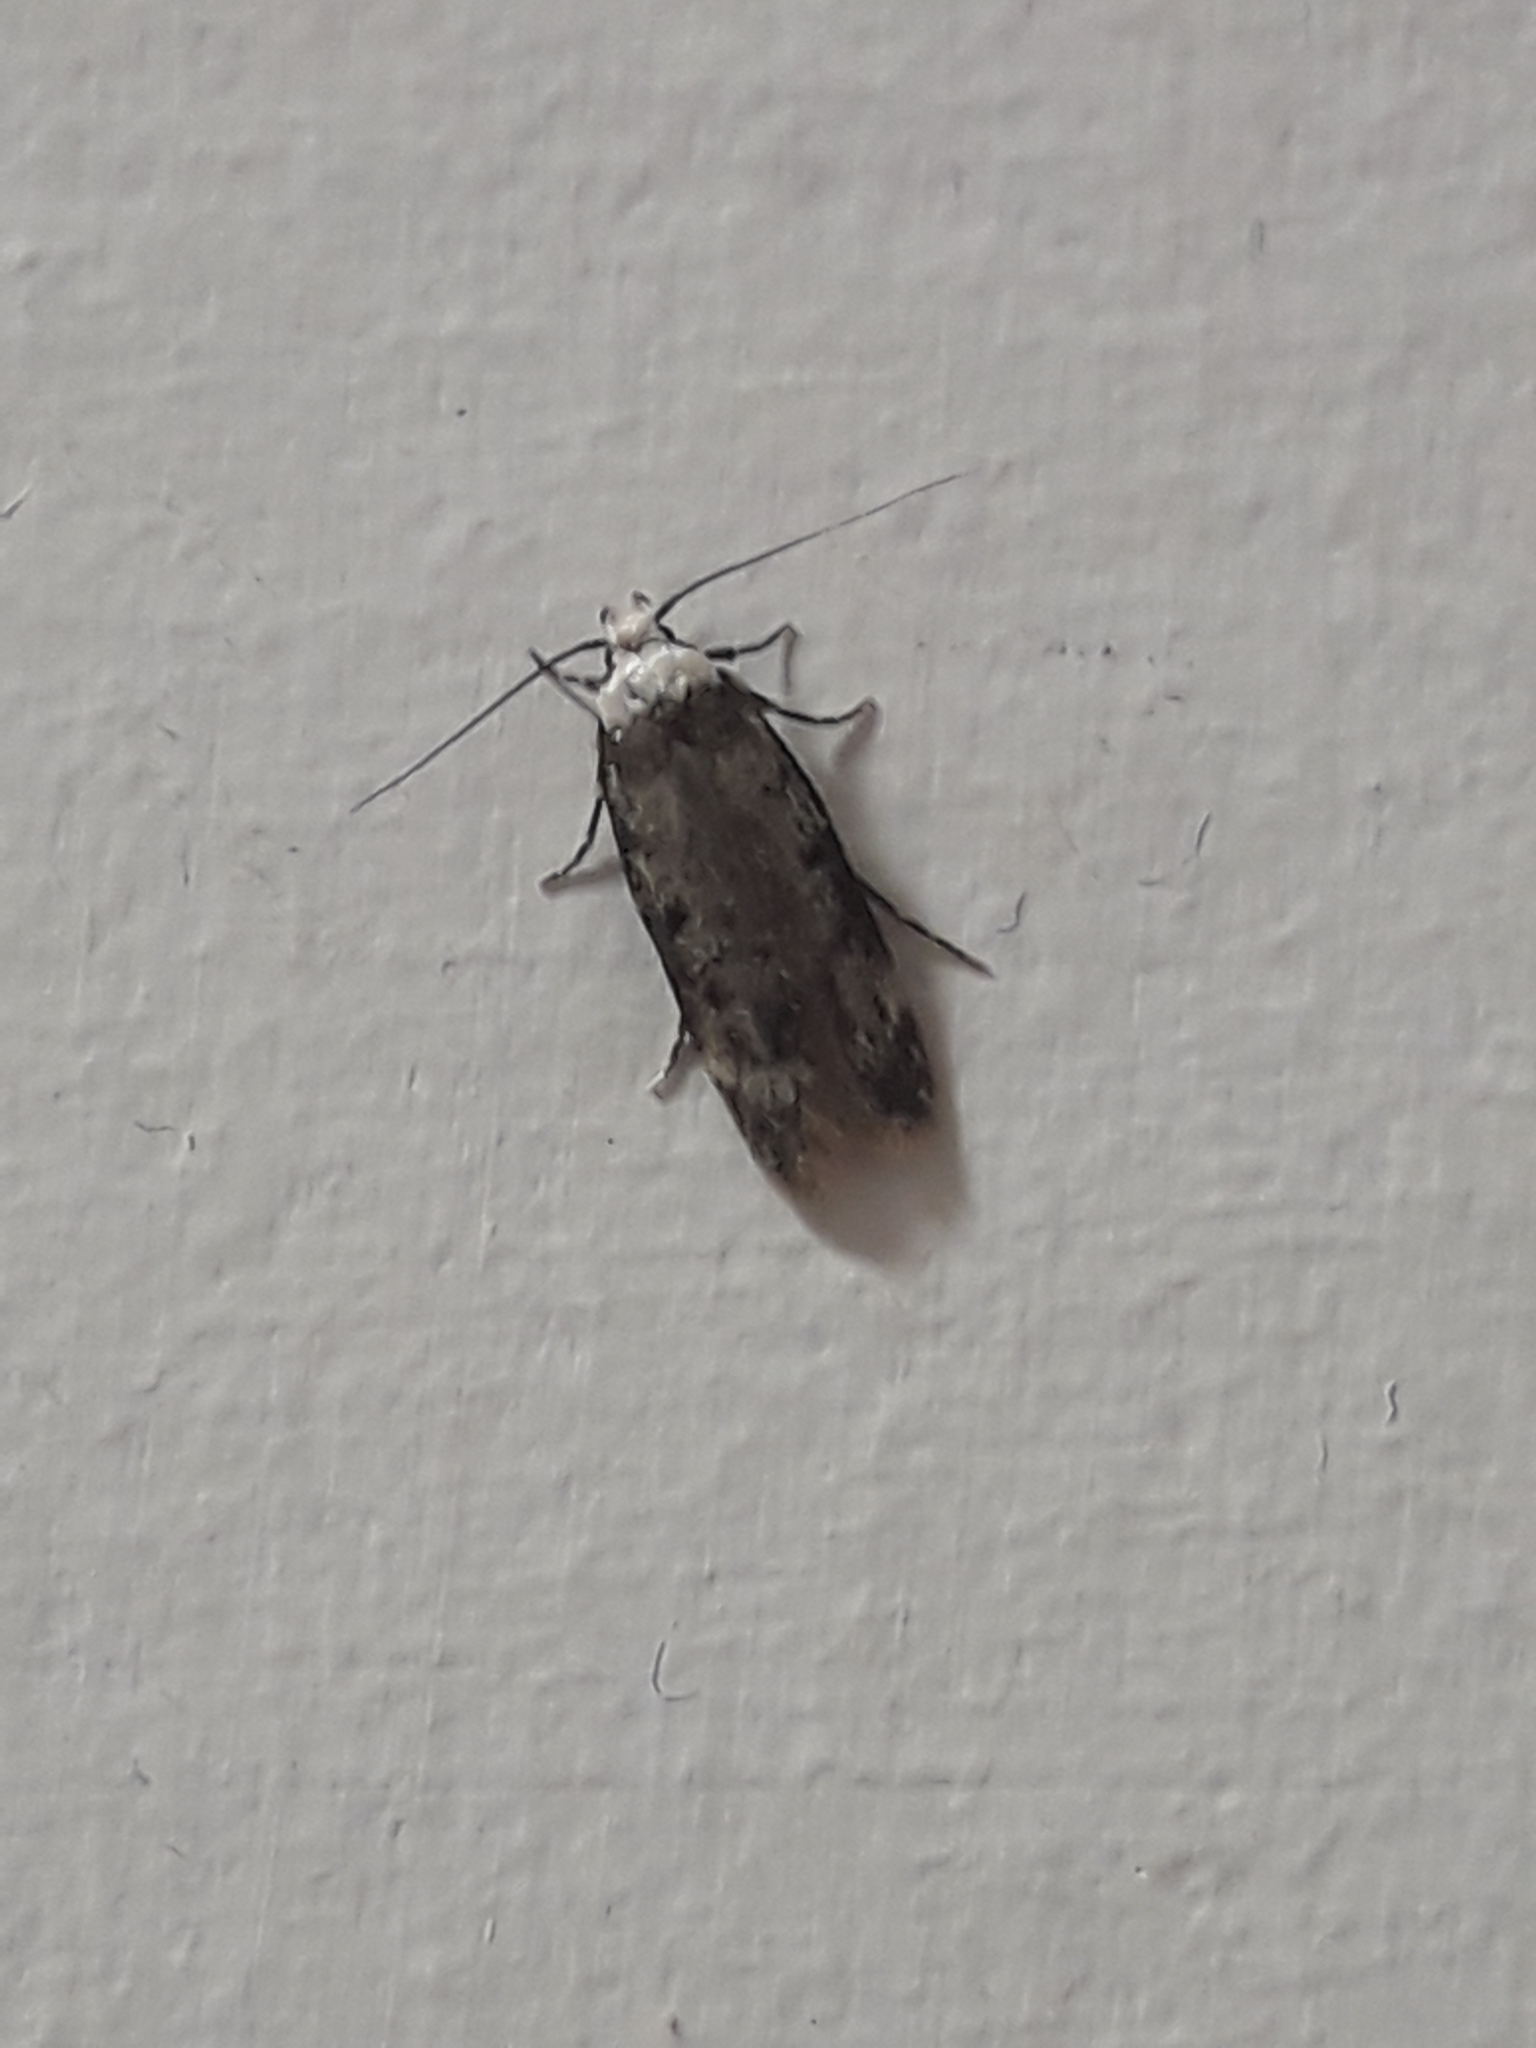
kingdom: Animalia
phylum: Arthropoda
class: Insecta
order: Lepidoptera
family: Oecophoridae
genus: Endrosis
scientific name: Endrosis sarcitrella
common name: White-shouldered house moth
